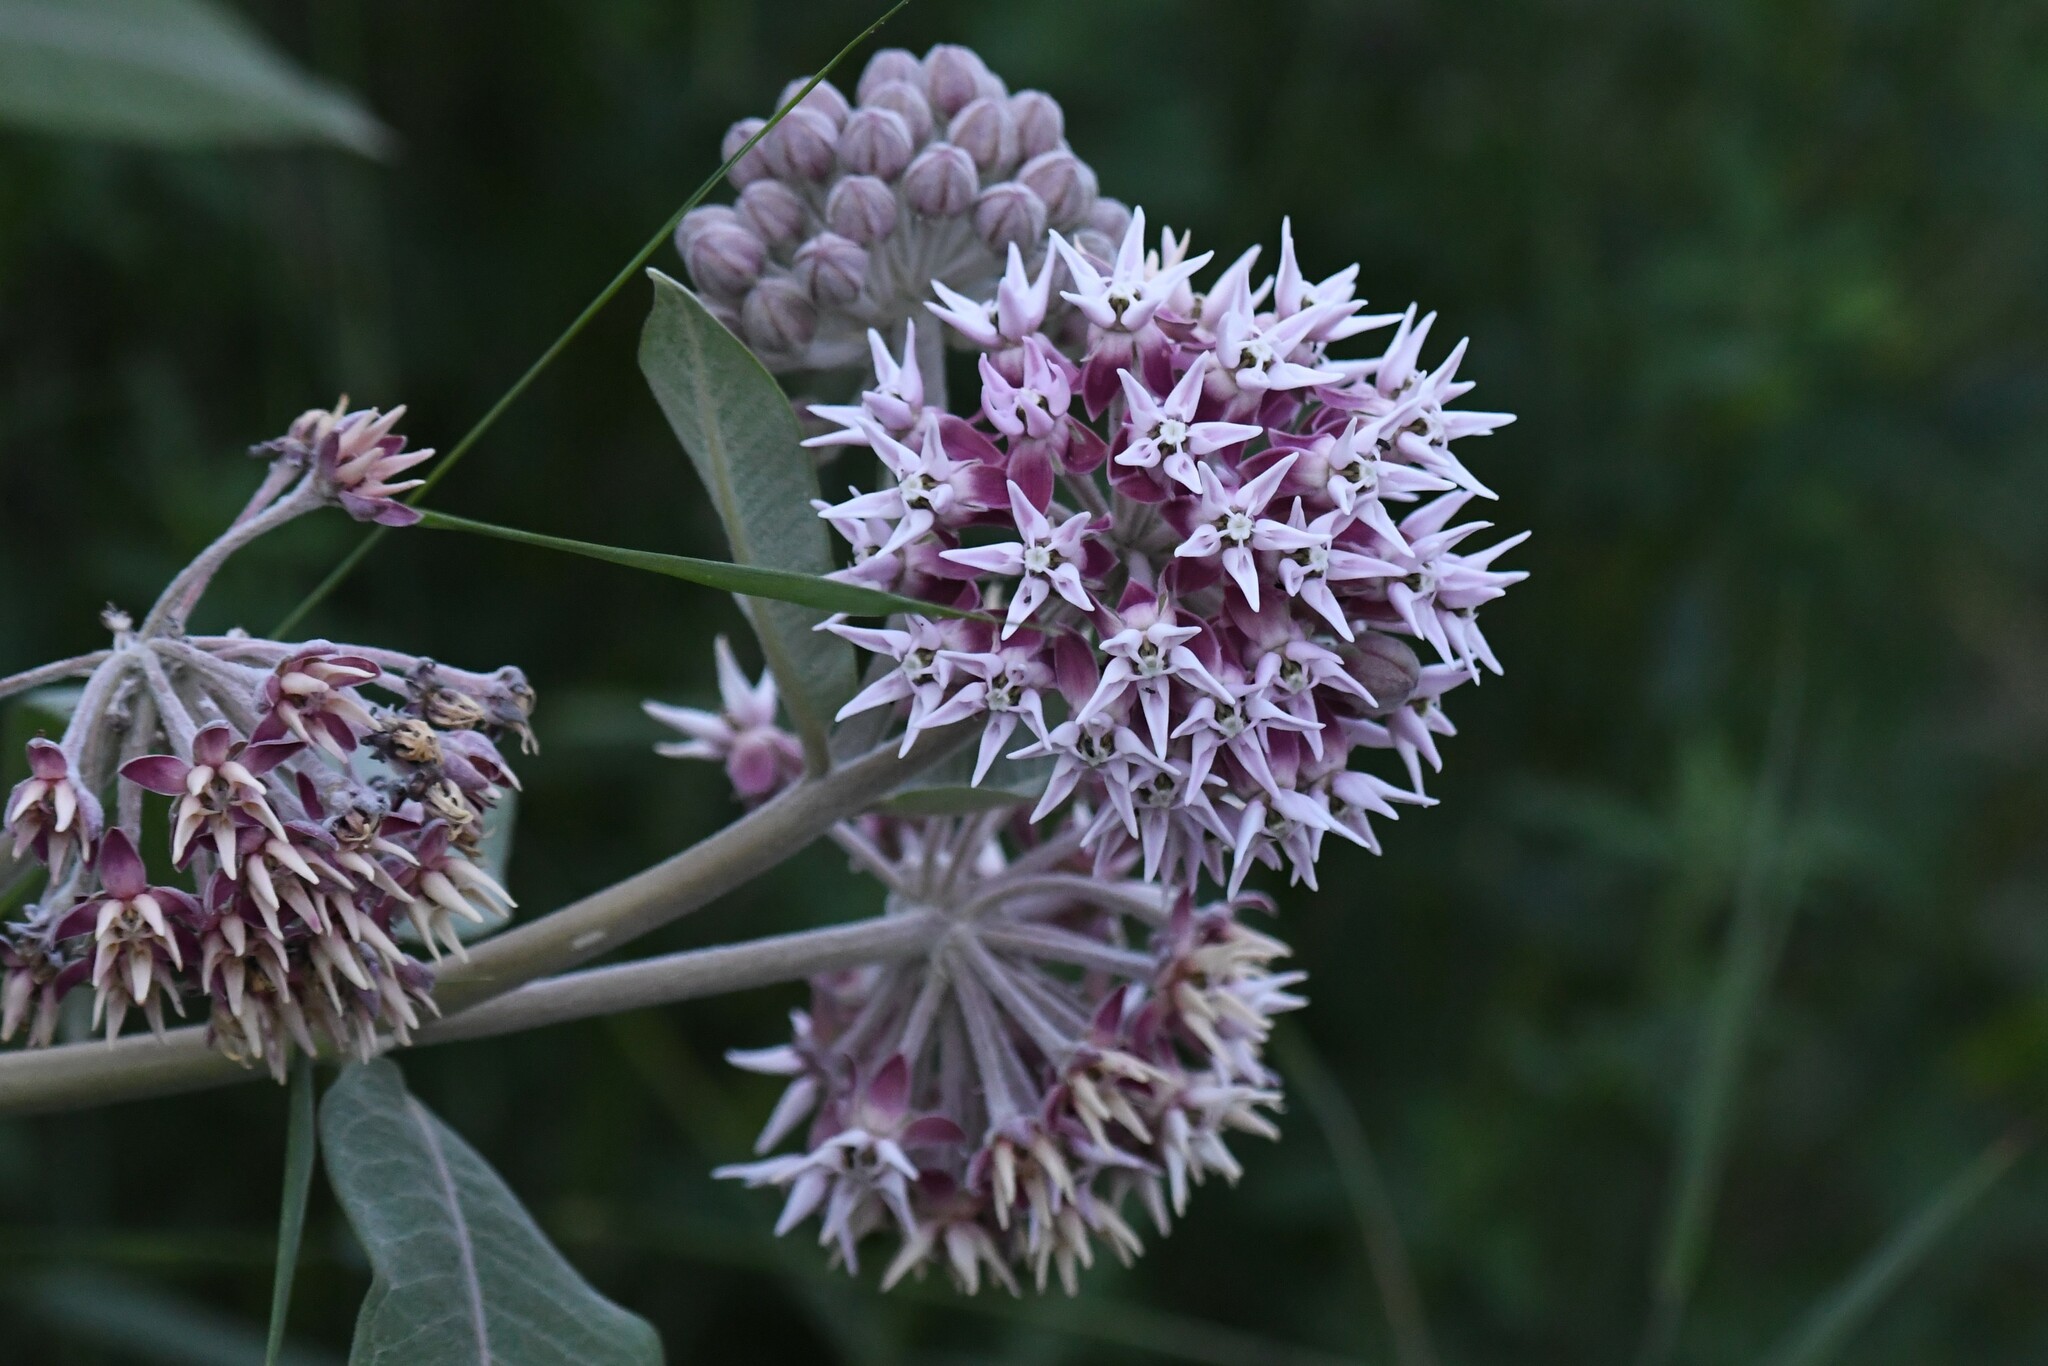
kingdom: Plantae
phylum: Tracheophyta
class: Magnoliopsida
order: Gentianales
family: Apocynaceae
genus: Asclepias
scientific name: Asclepias speciosa
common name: Showy milkweed
